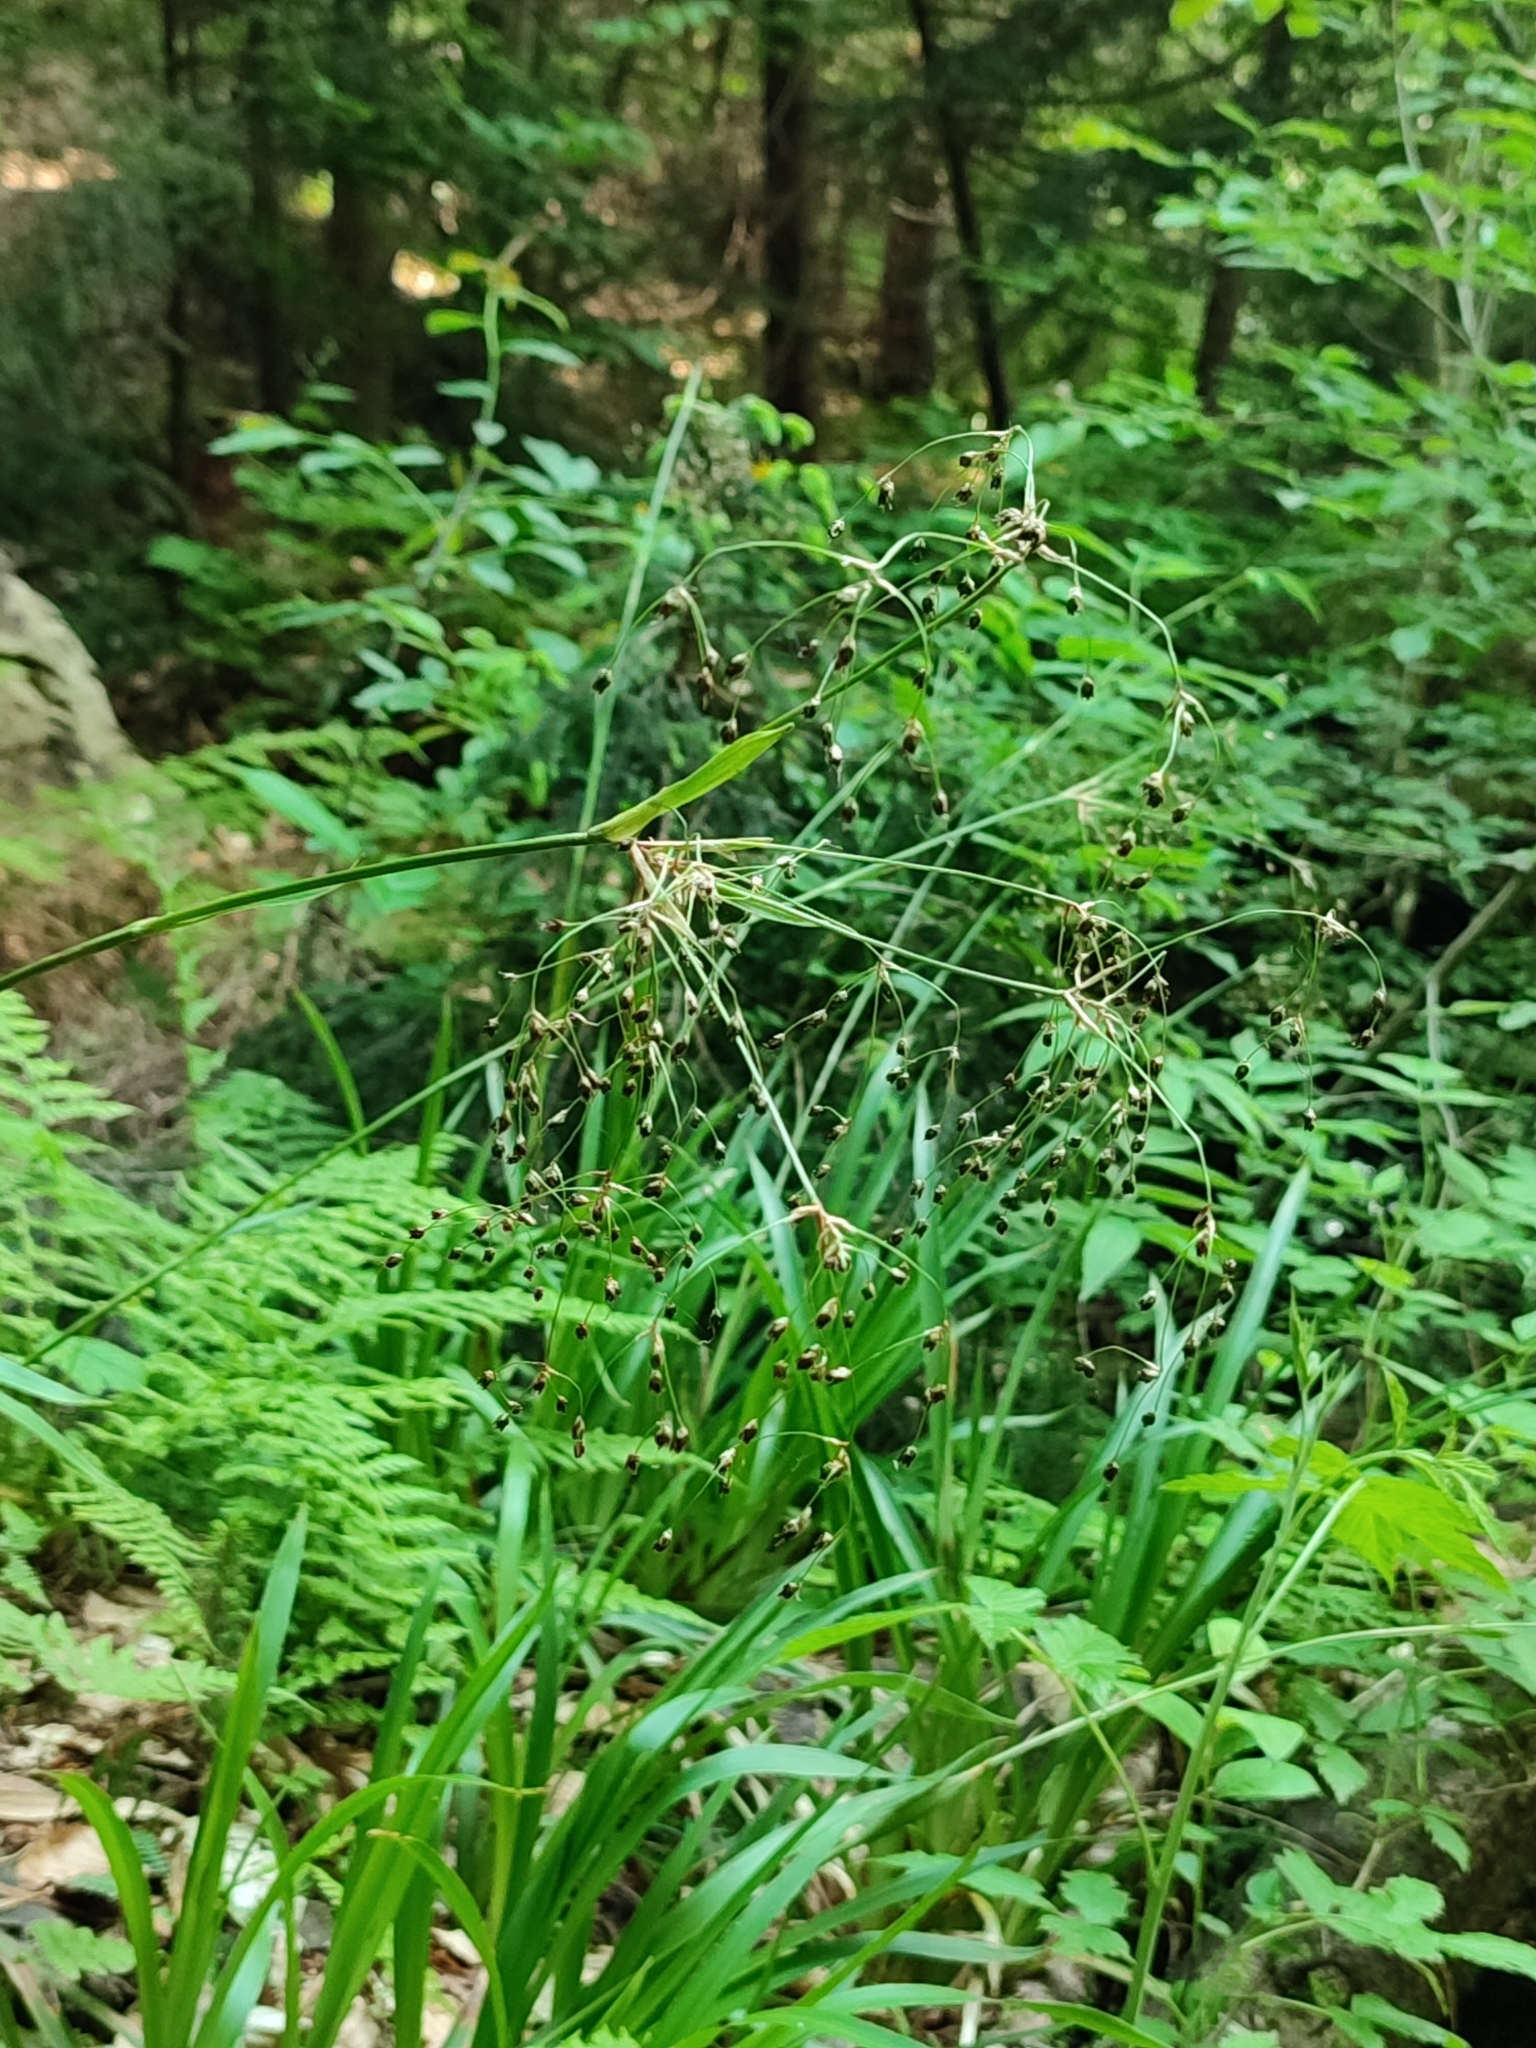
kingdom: Plantae
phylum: Tracheophyta
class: Liliopsida
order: Poales
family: Juncaceae
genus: Luzula
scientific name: Luzula sylvatica
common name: Great wood-rush
